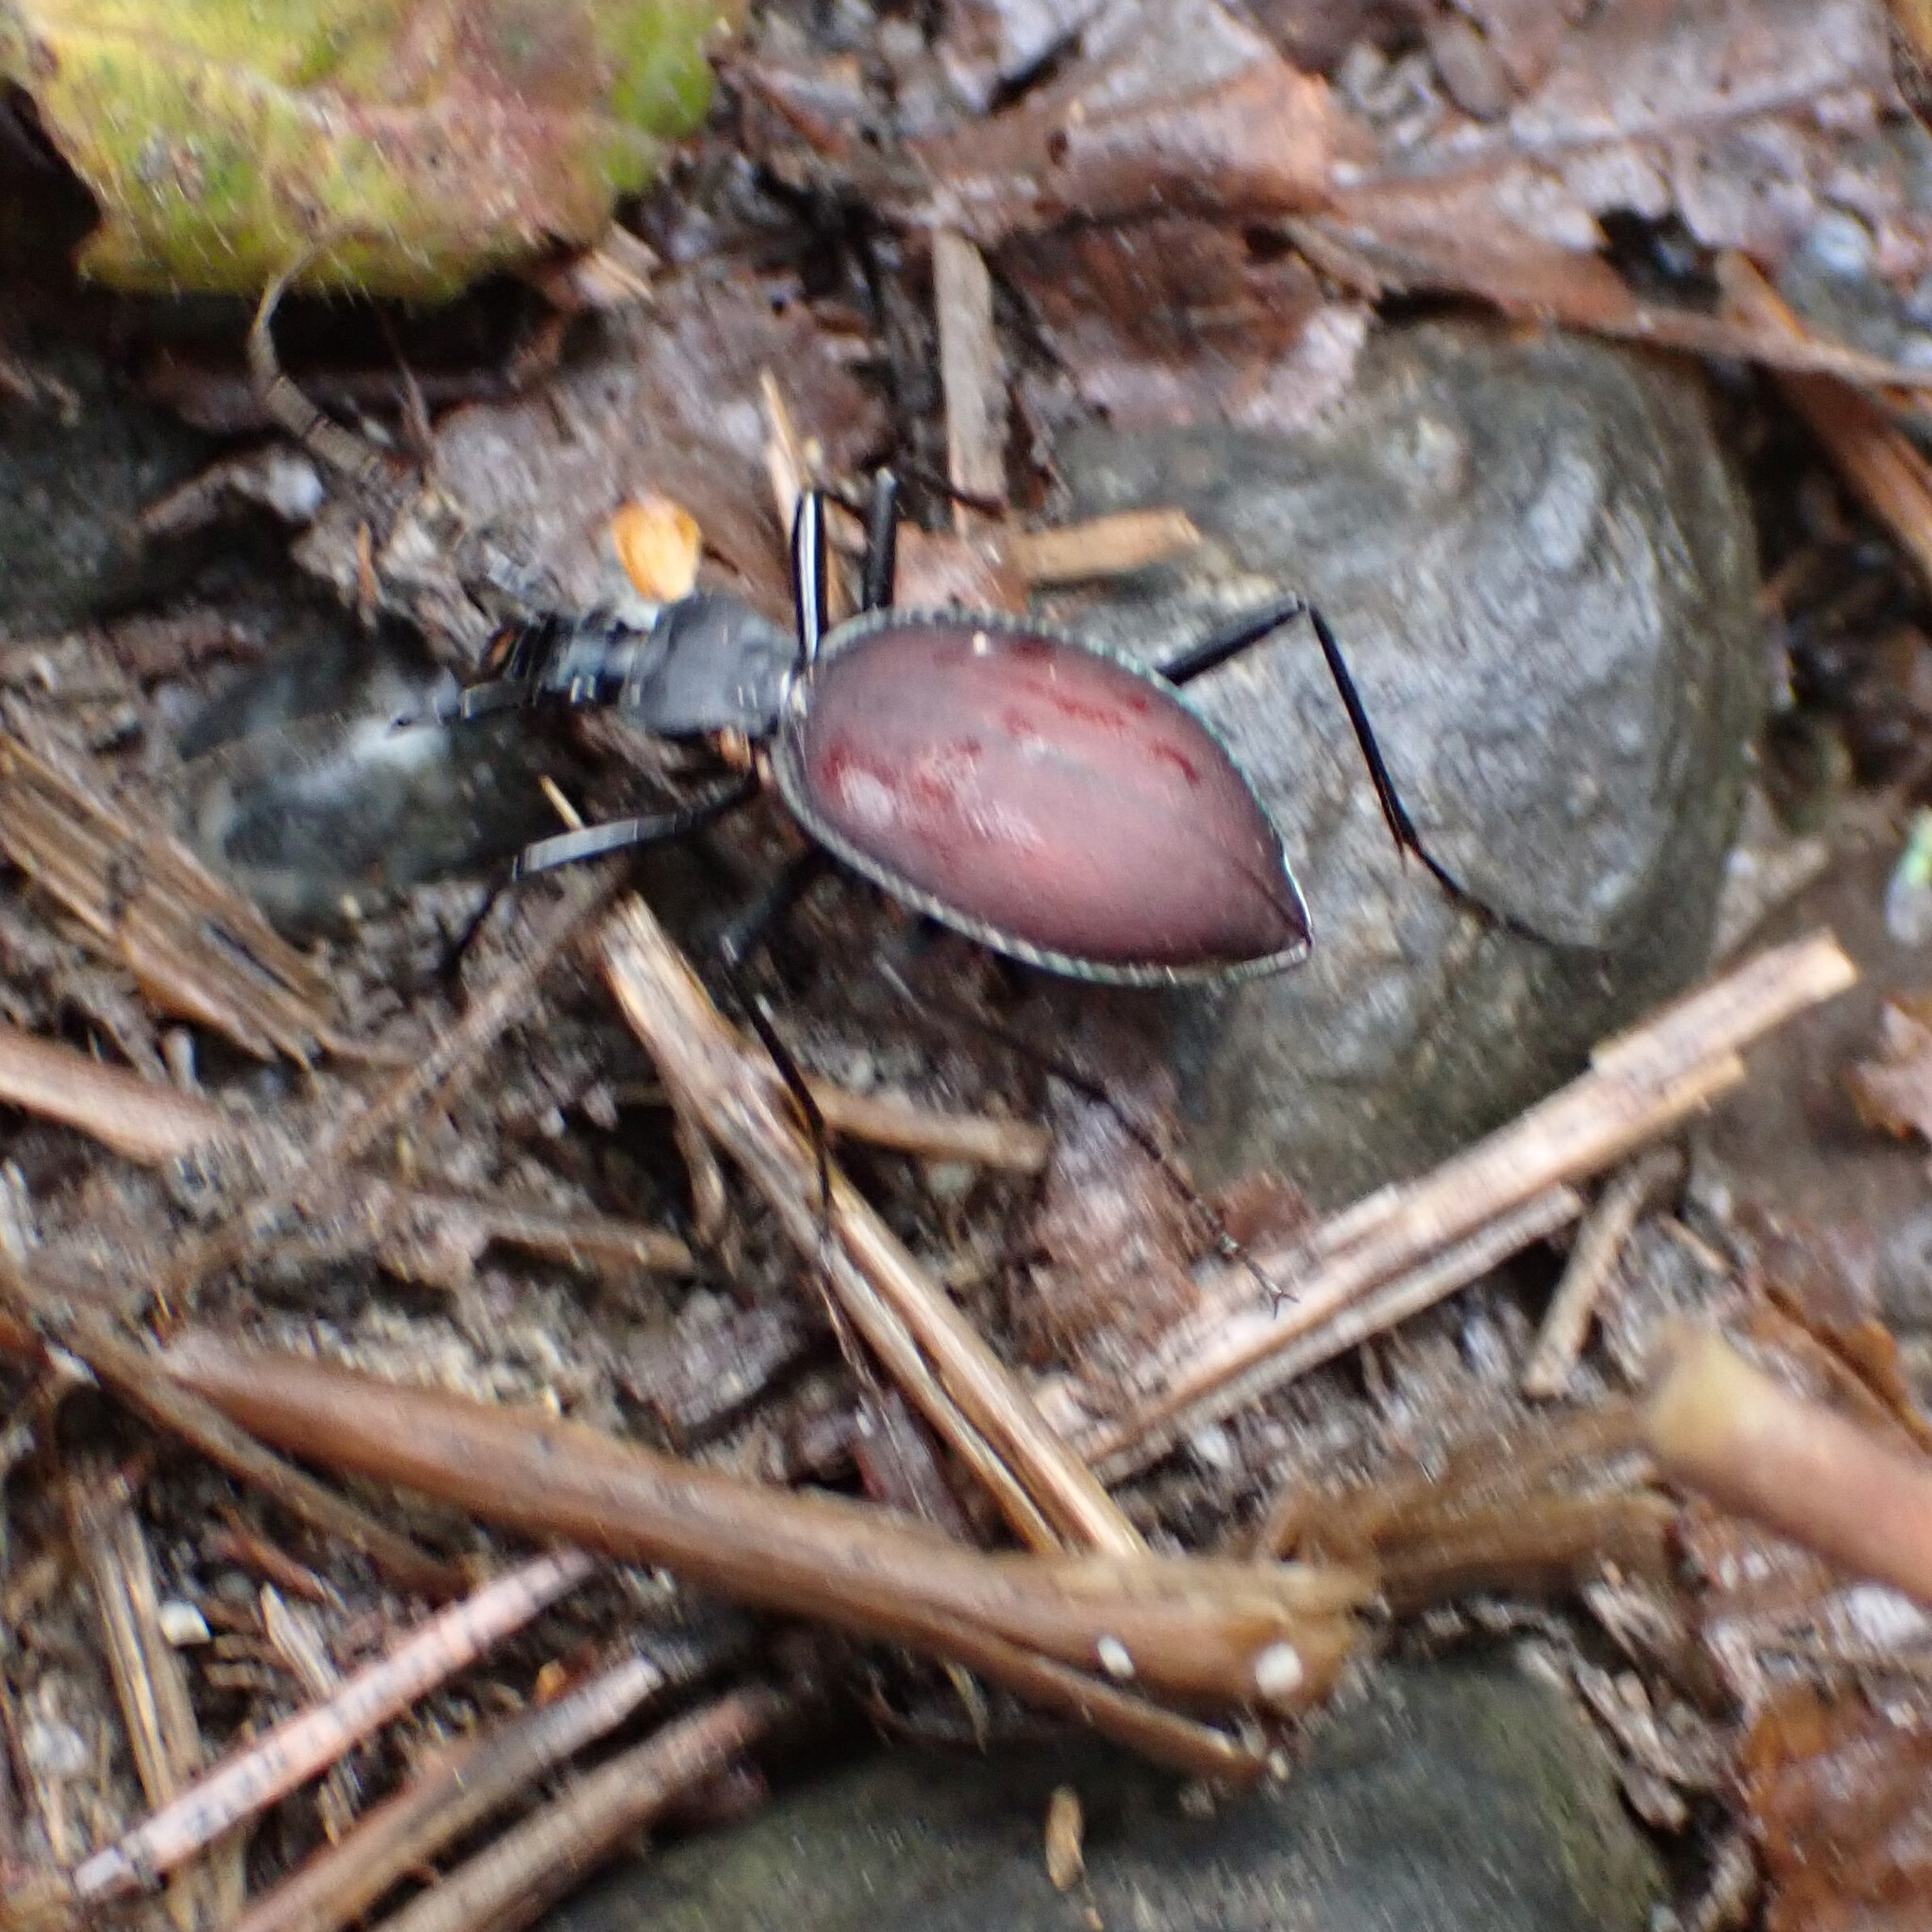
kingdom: Animalia
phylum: Arthropoda
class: Insecta
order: Coleoptera
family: Carabidae
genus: Scaphinotus
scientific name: Scaphinotus angusticollis
